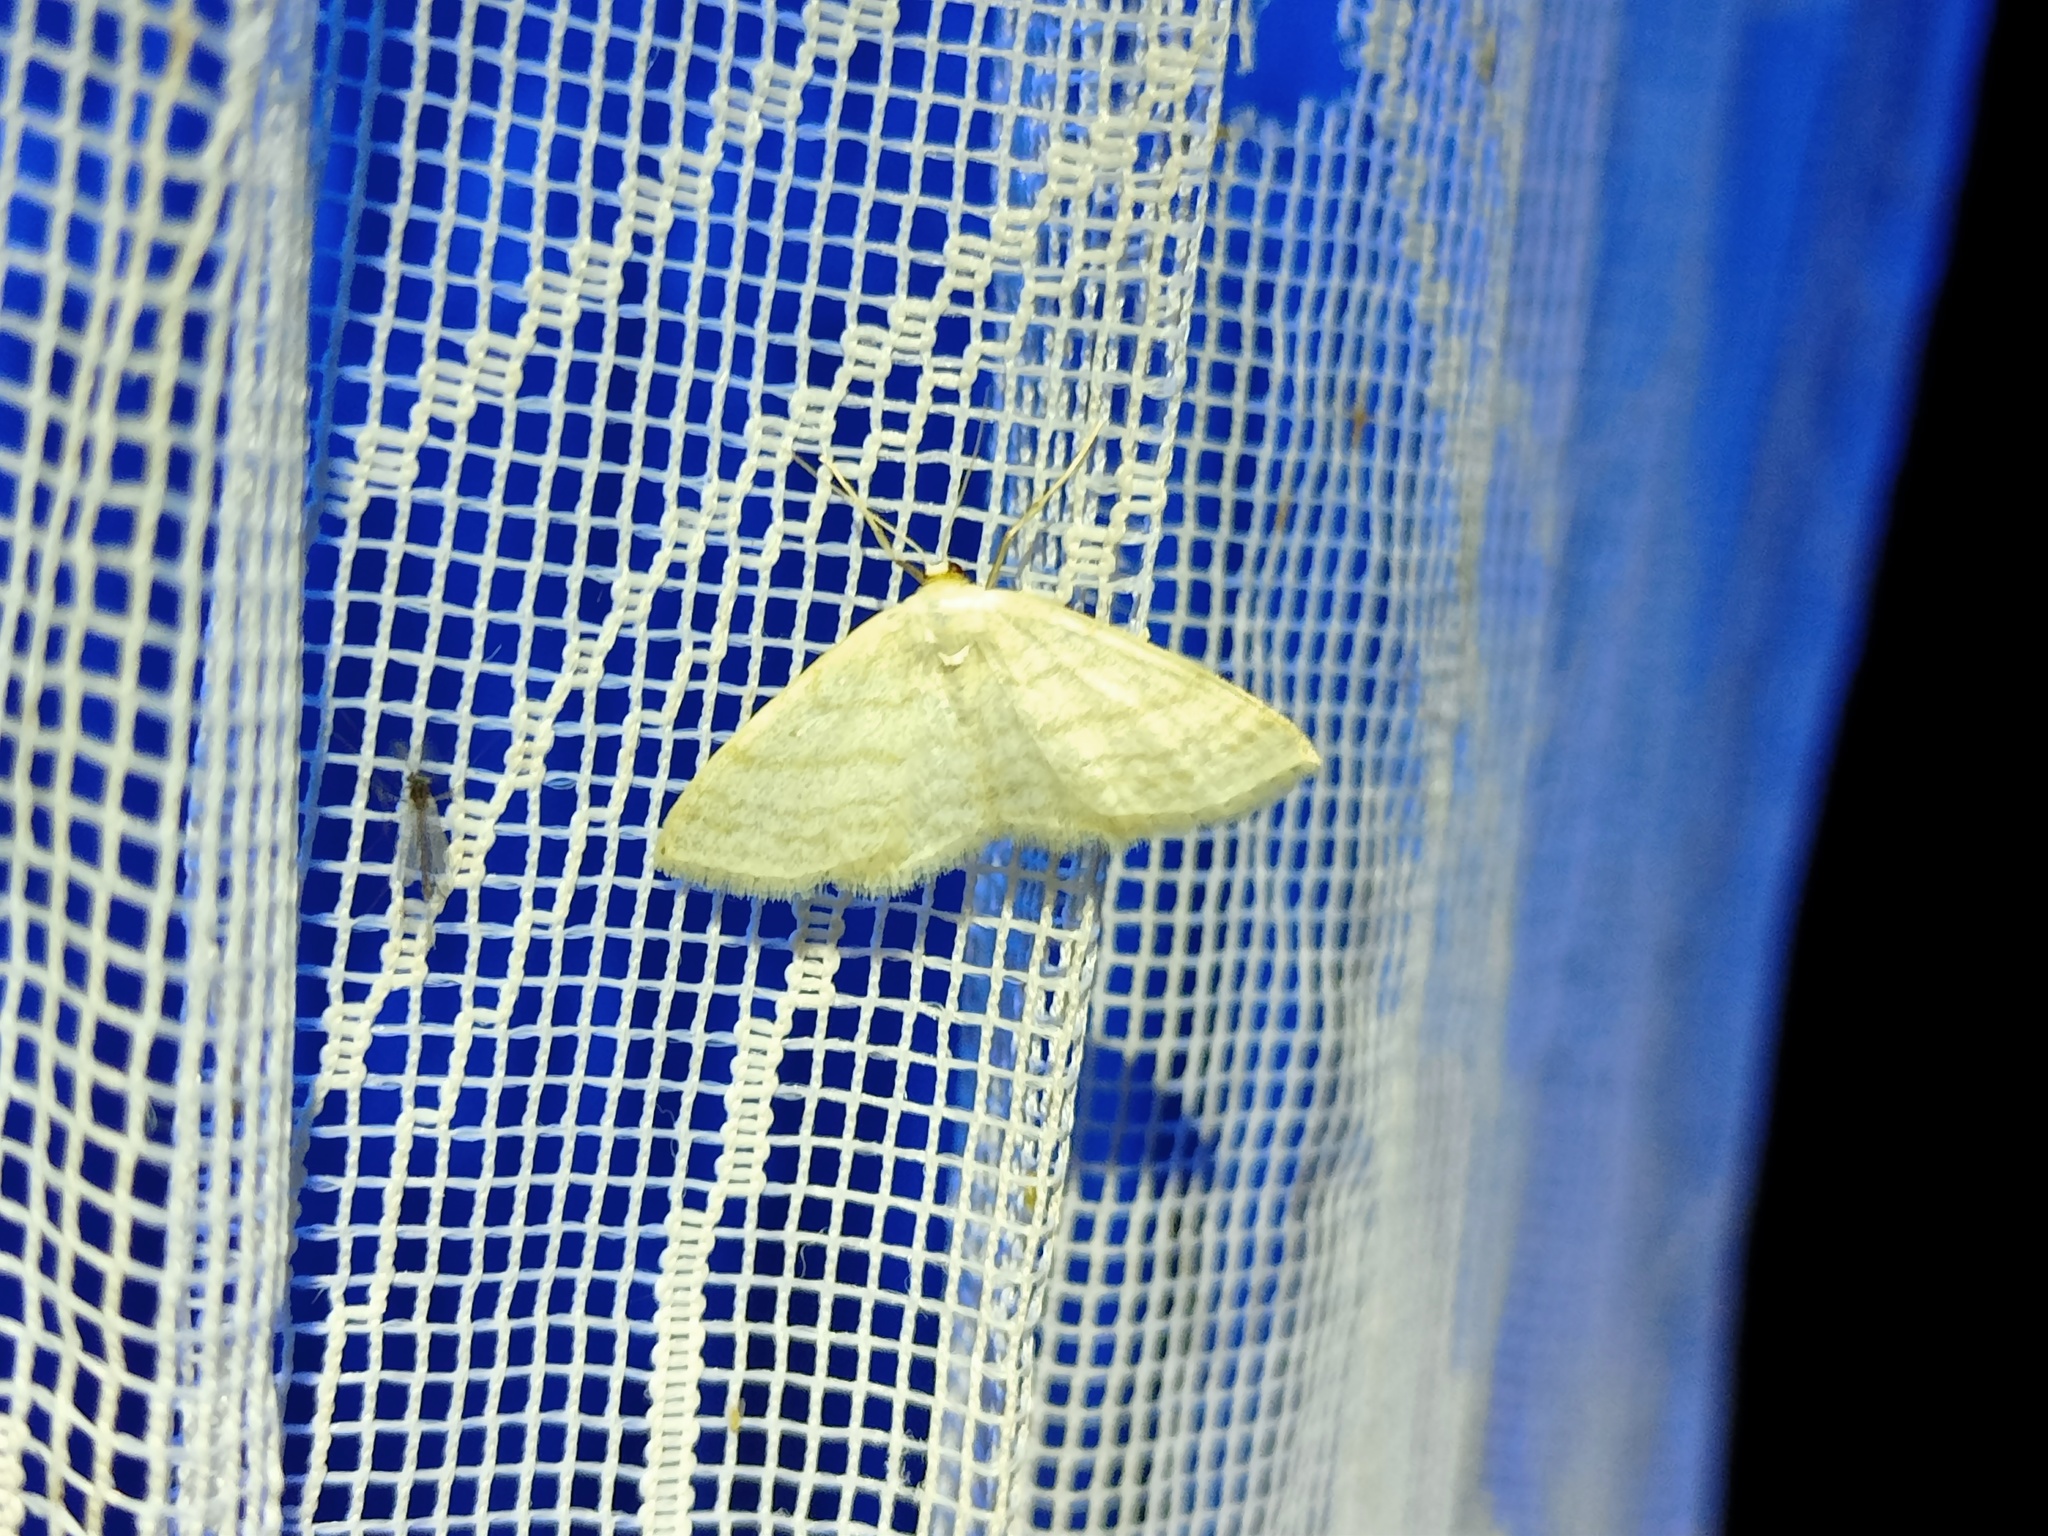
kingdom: Animalia
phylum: Arthropoda
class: Insecta
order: Lepidoptera
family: Geometridae
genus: Idaea
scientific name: Idaea subsericeata
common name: Satin wave
